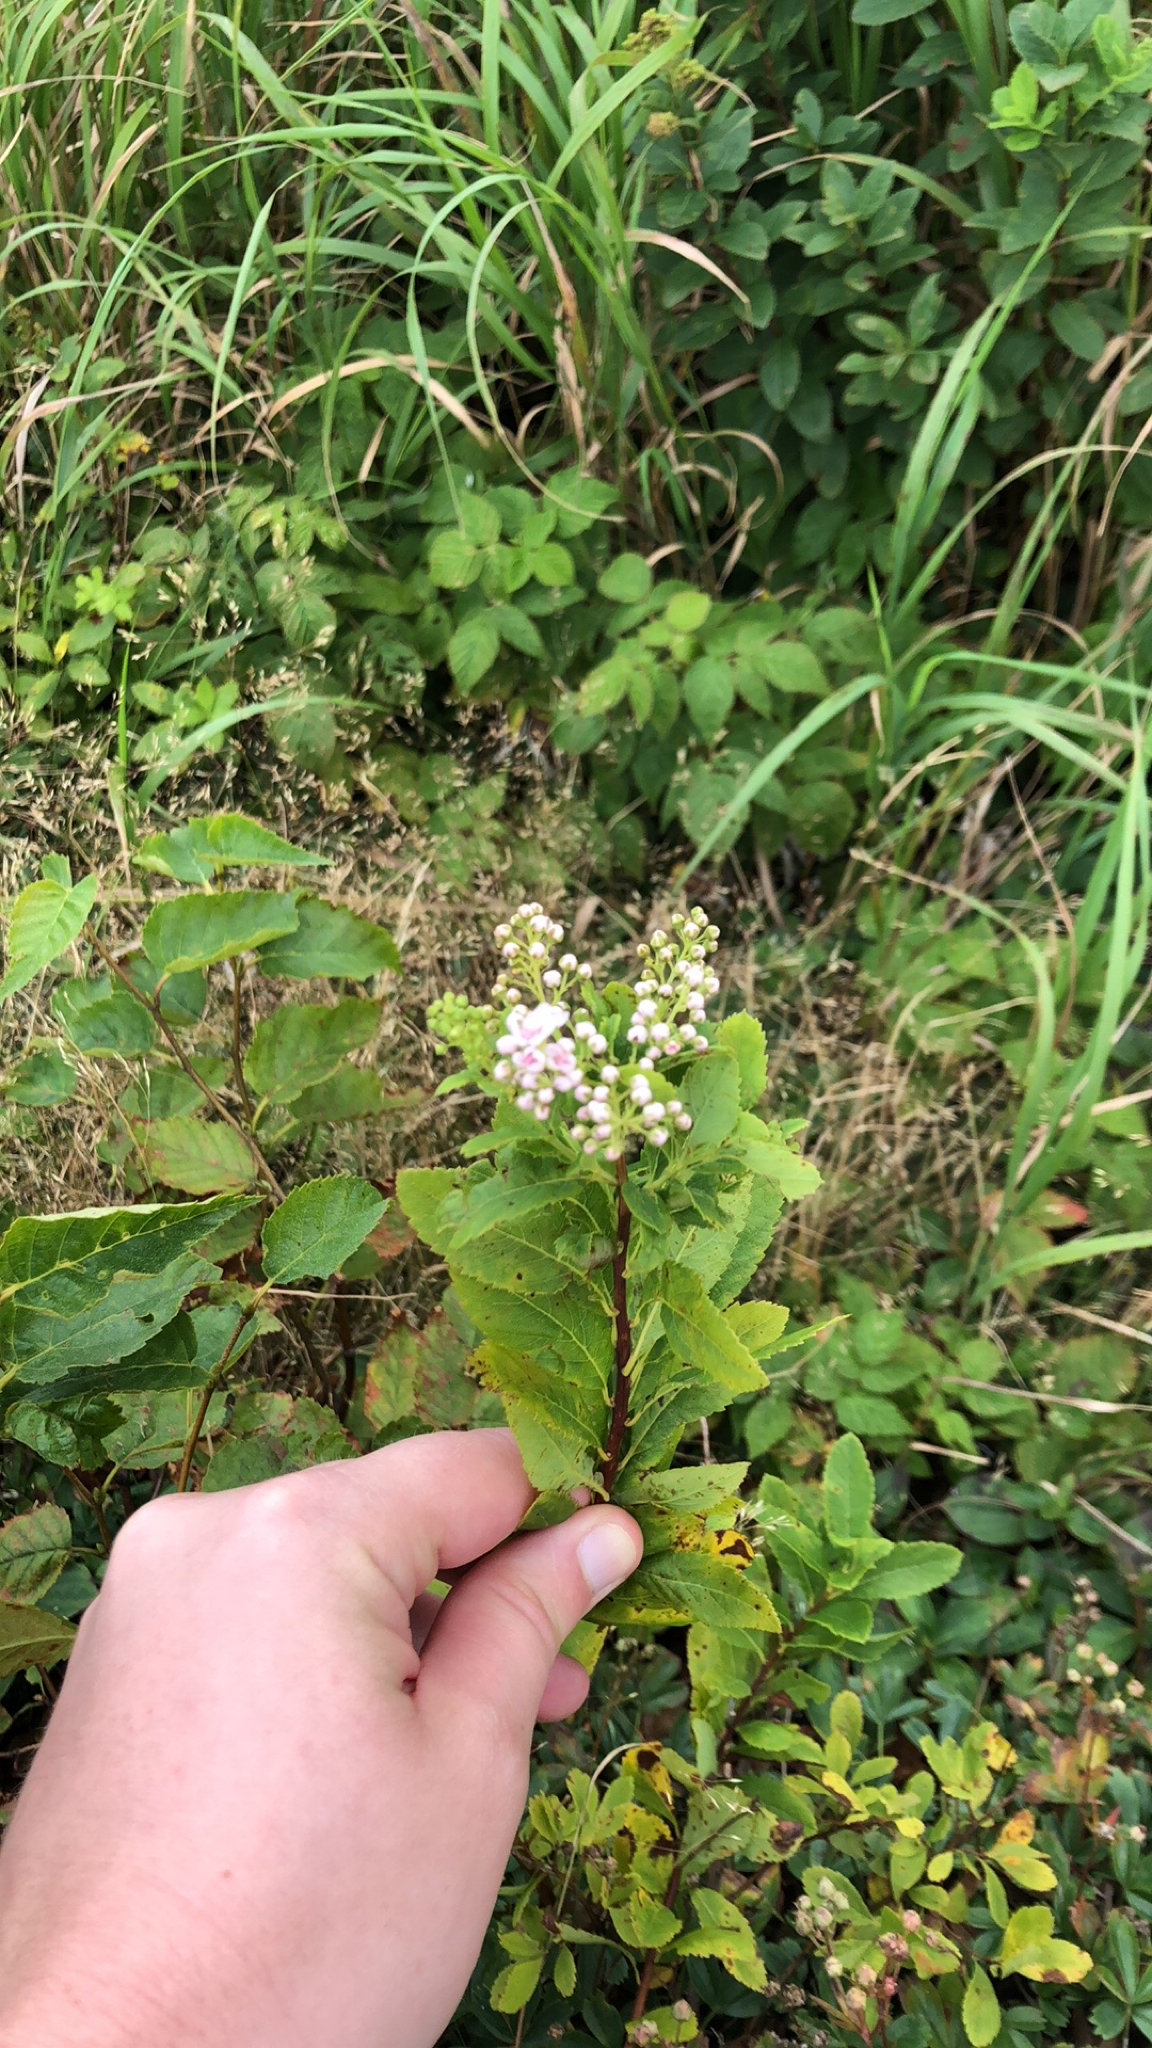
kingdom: Plantae
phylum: Tracheophyta
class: Magnoliopsida
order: Rosales
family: Rosaceae
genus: Spiraea
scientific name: Spiraea alba
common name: Pale bridewort
